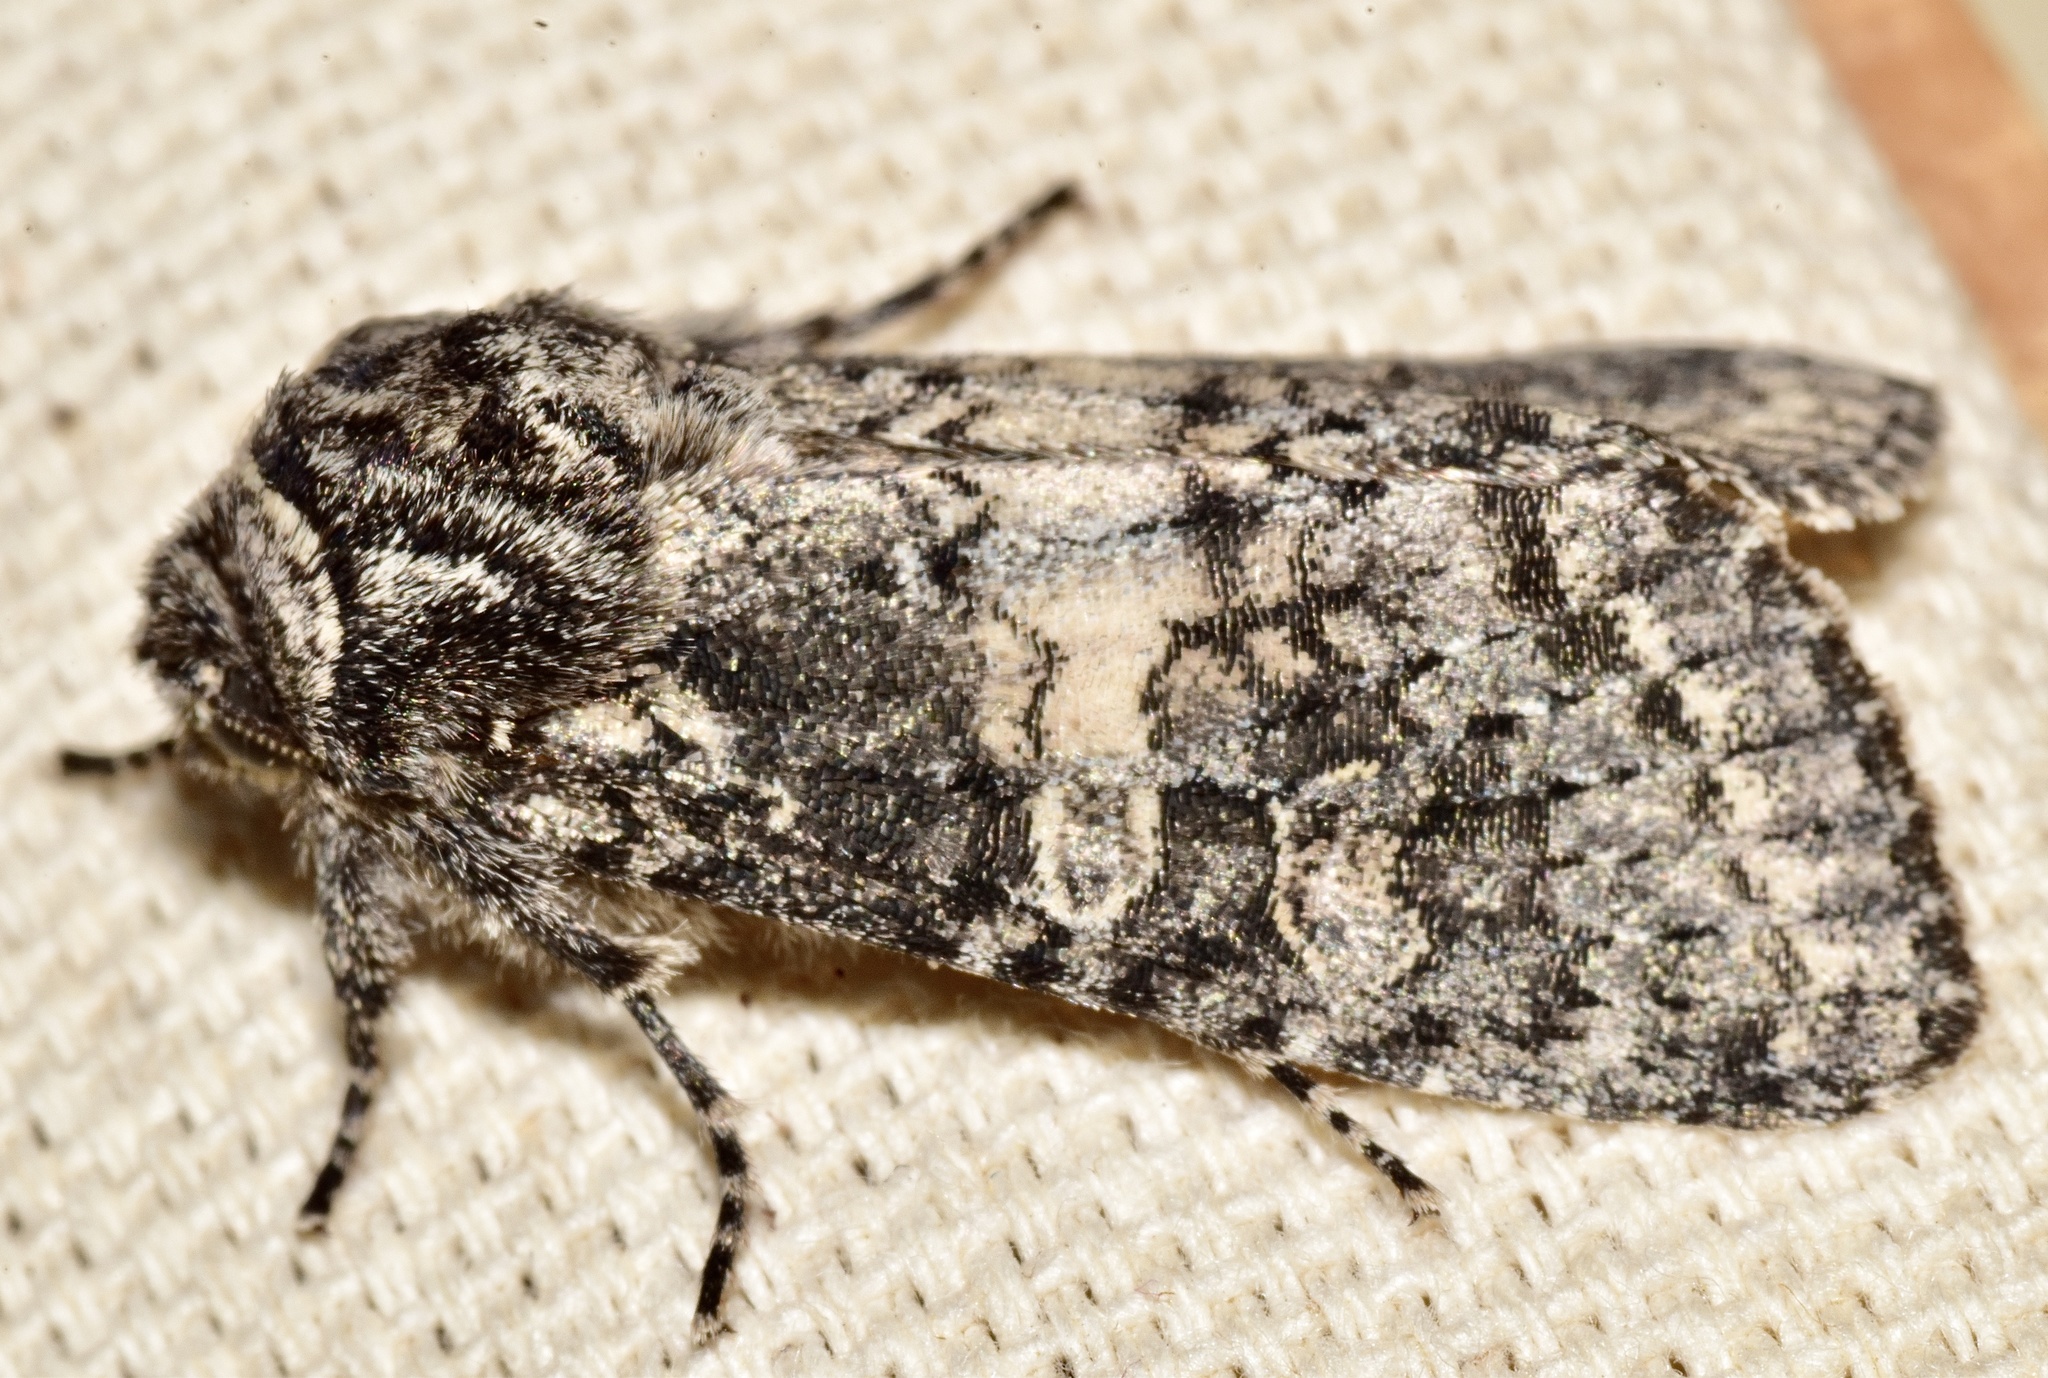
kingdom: Animalia
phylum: Arthropoda
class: Insecta
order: Lepidoptera
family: Noctuidae
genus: Egira
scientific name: Egira dolosa
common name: Lined black aspen cat.
